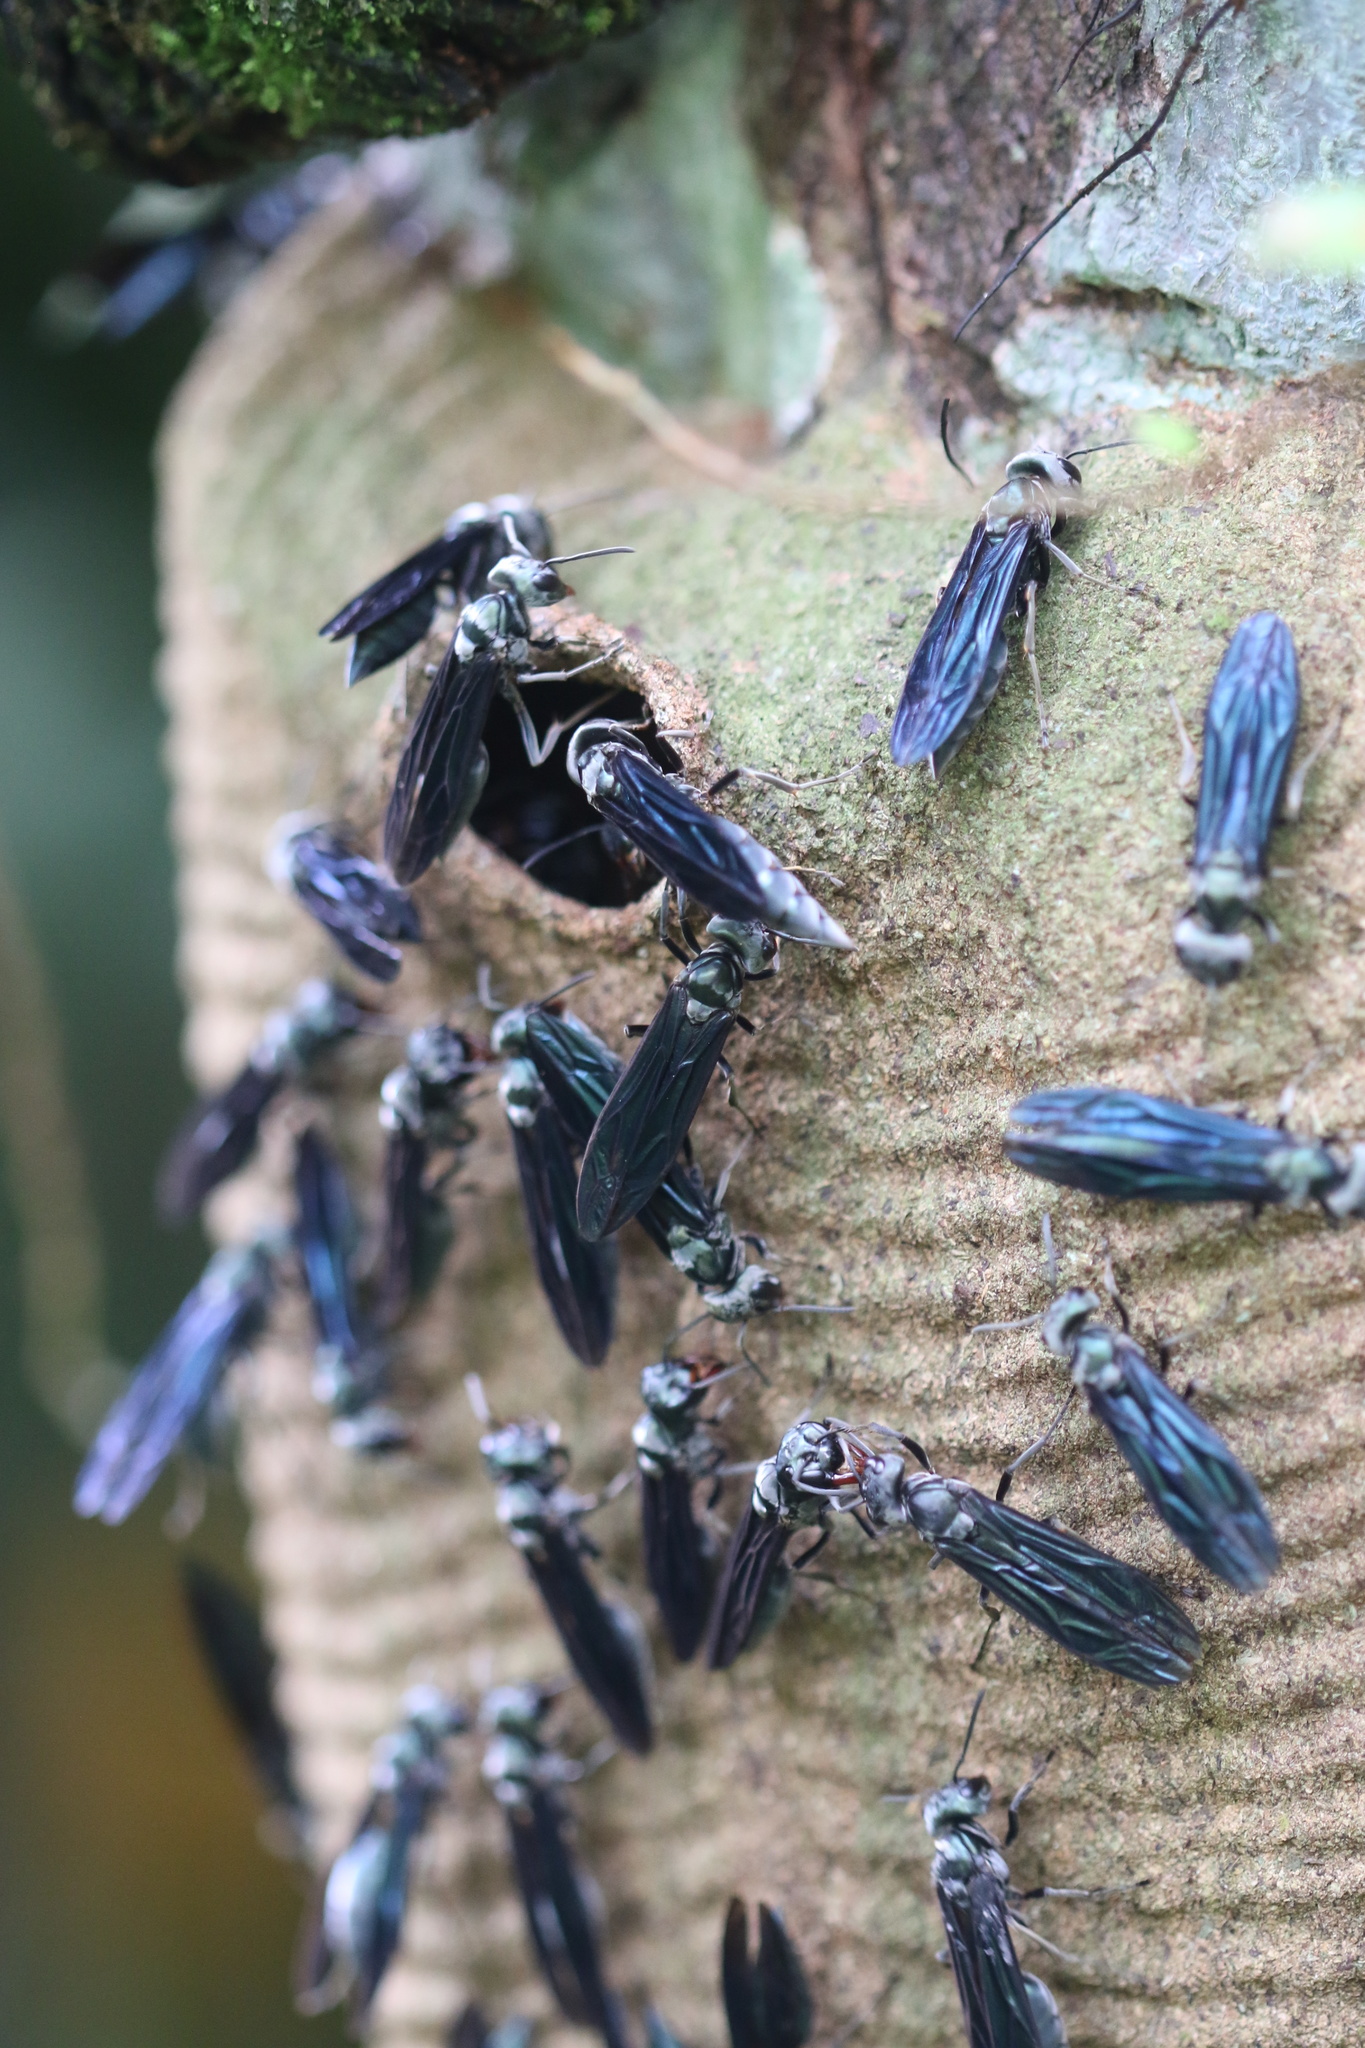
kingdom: Animalia
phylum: Arthropoda
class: Insecta
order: Hymenoptera
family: Vespidae
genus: Synoeca
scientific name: Synoeca septentrionalis
